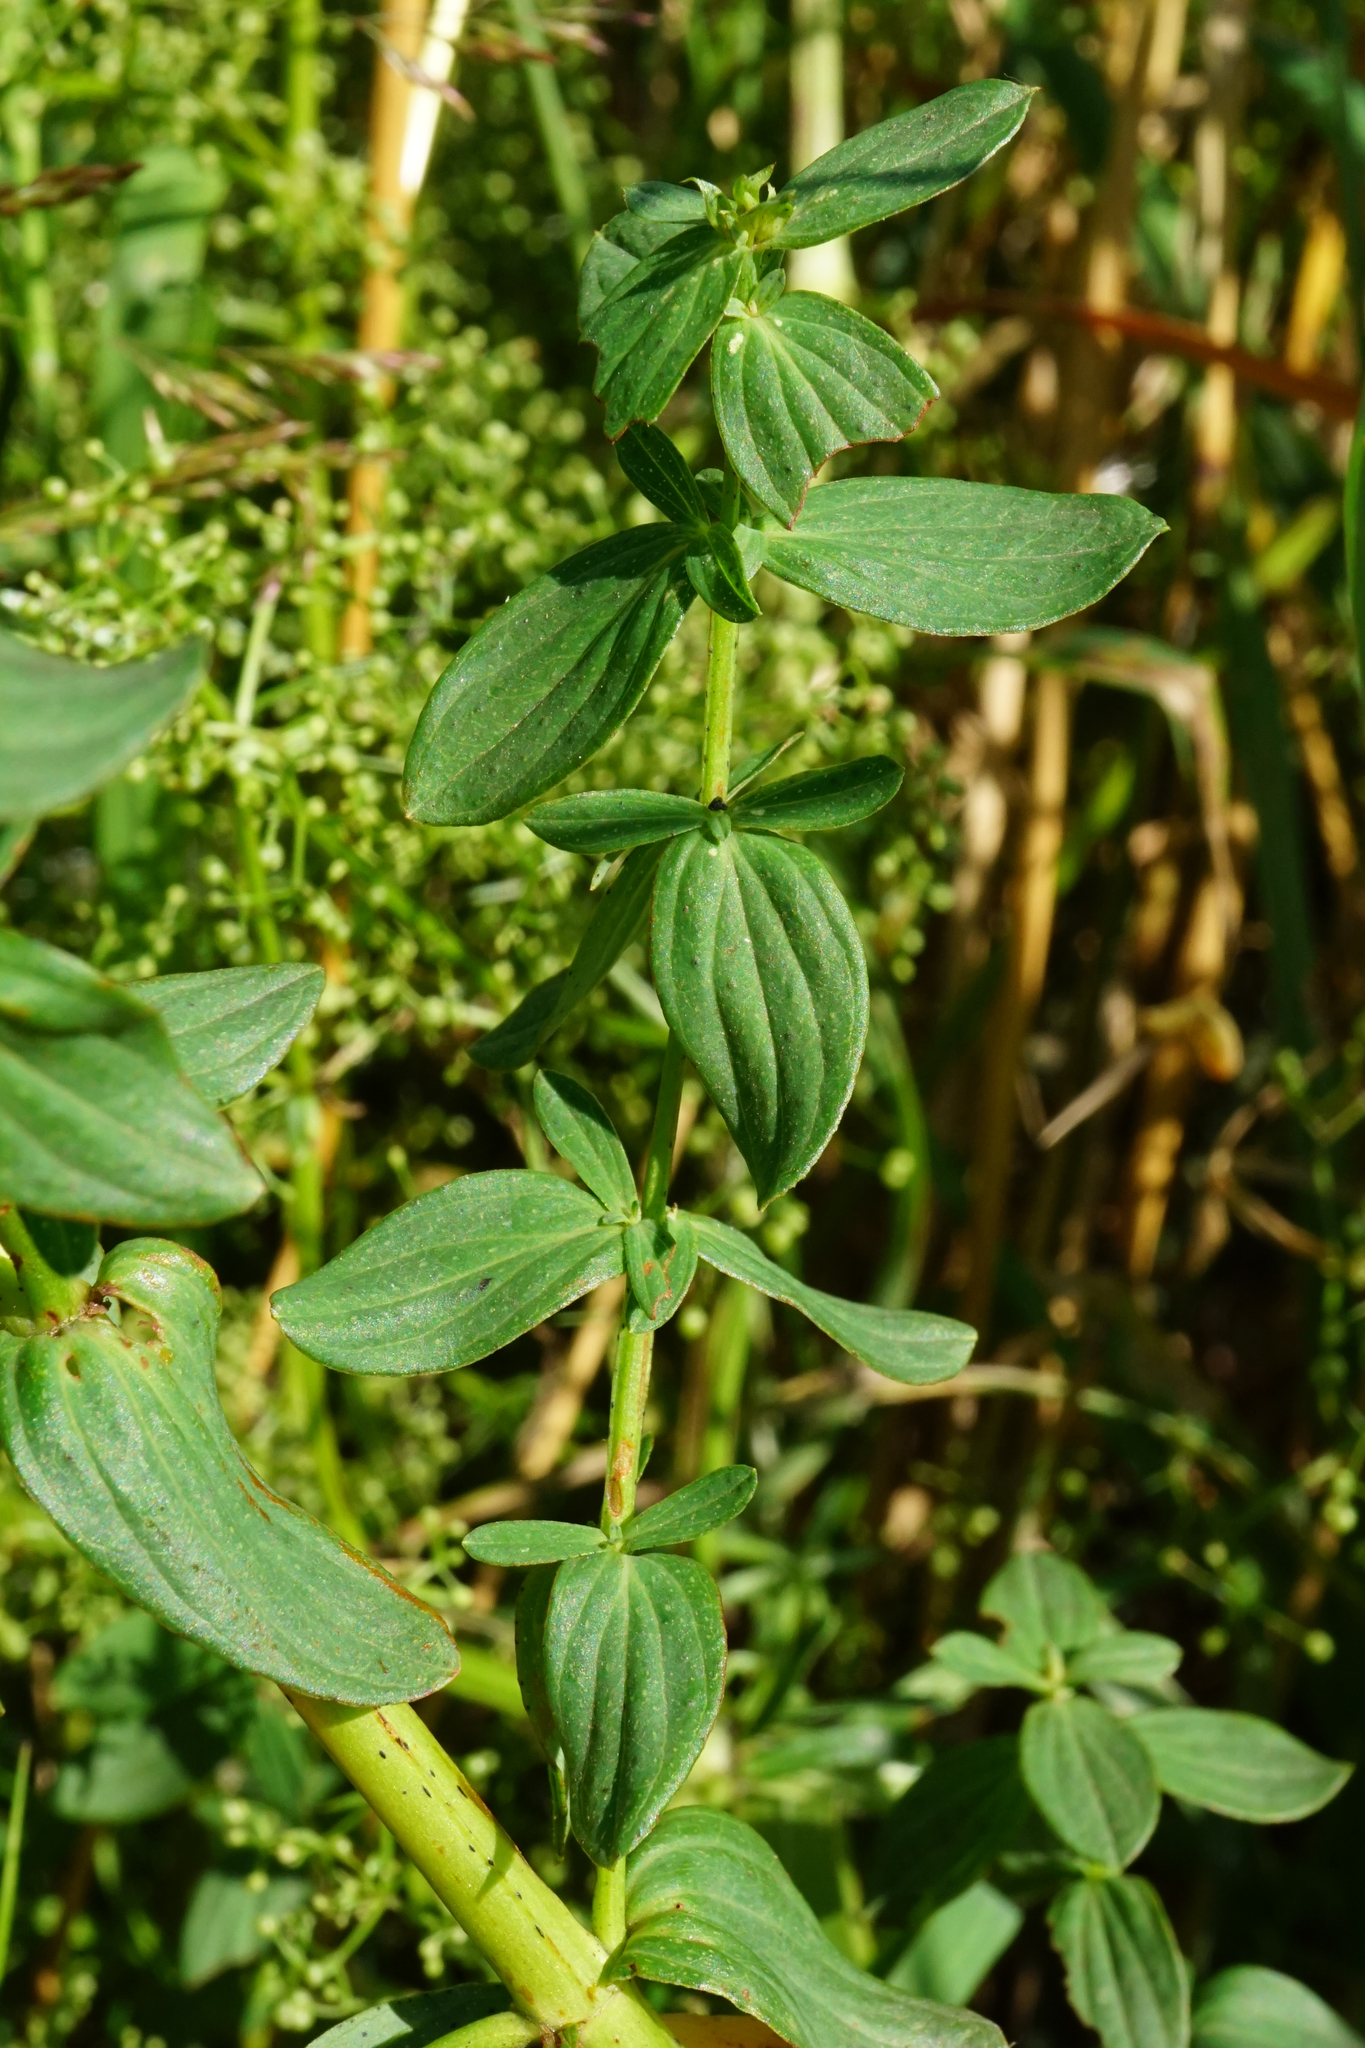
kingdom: Plantae
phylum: Tracheophyta
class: Magnoliopsida
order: Malpighiales
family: Hypericaceae
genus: Hypericum
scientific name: Hypericum desetangsii
